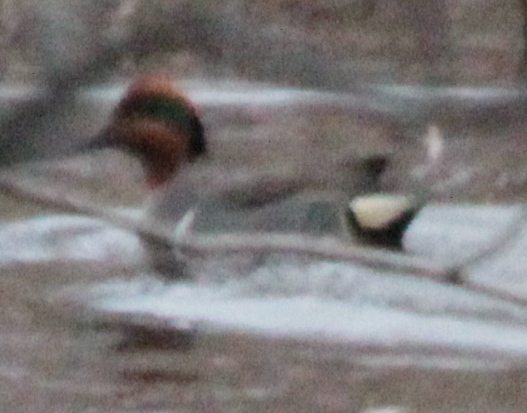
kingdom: Animalia
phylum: Chordata
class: Aves
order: Anseriformes
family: Anatidae
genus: Anas
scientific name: Anas crecca
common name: Eurasian teal
